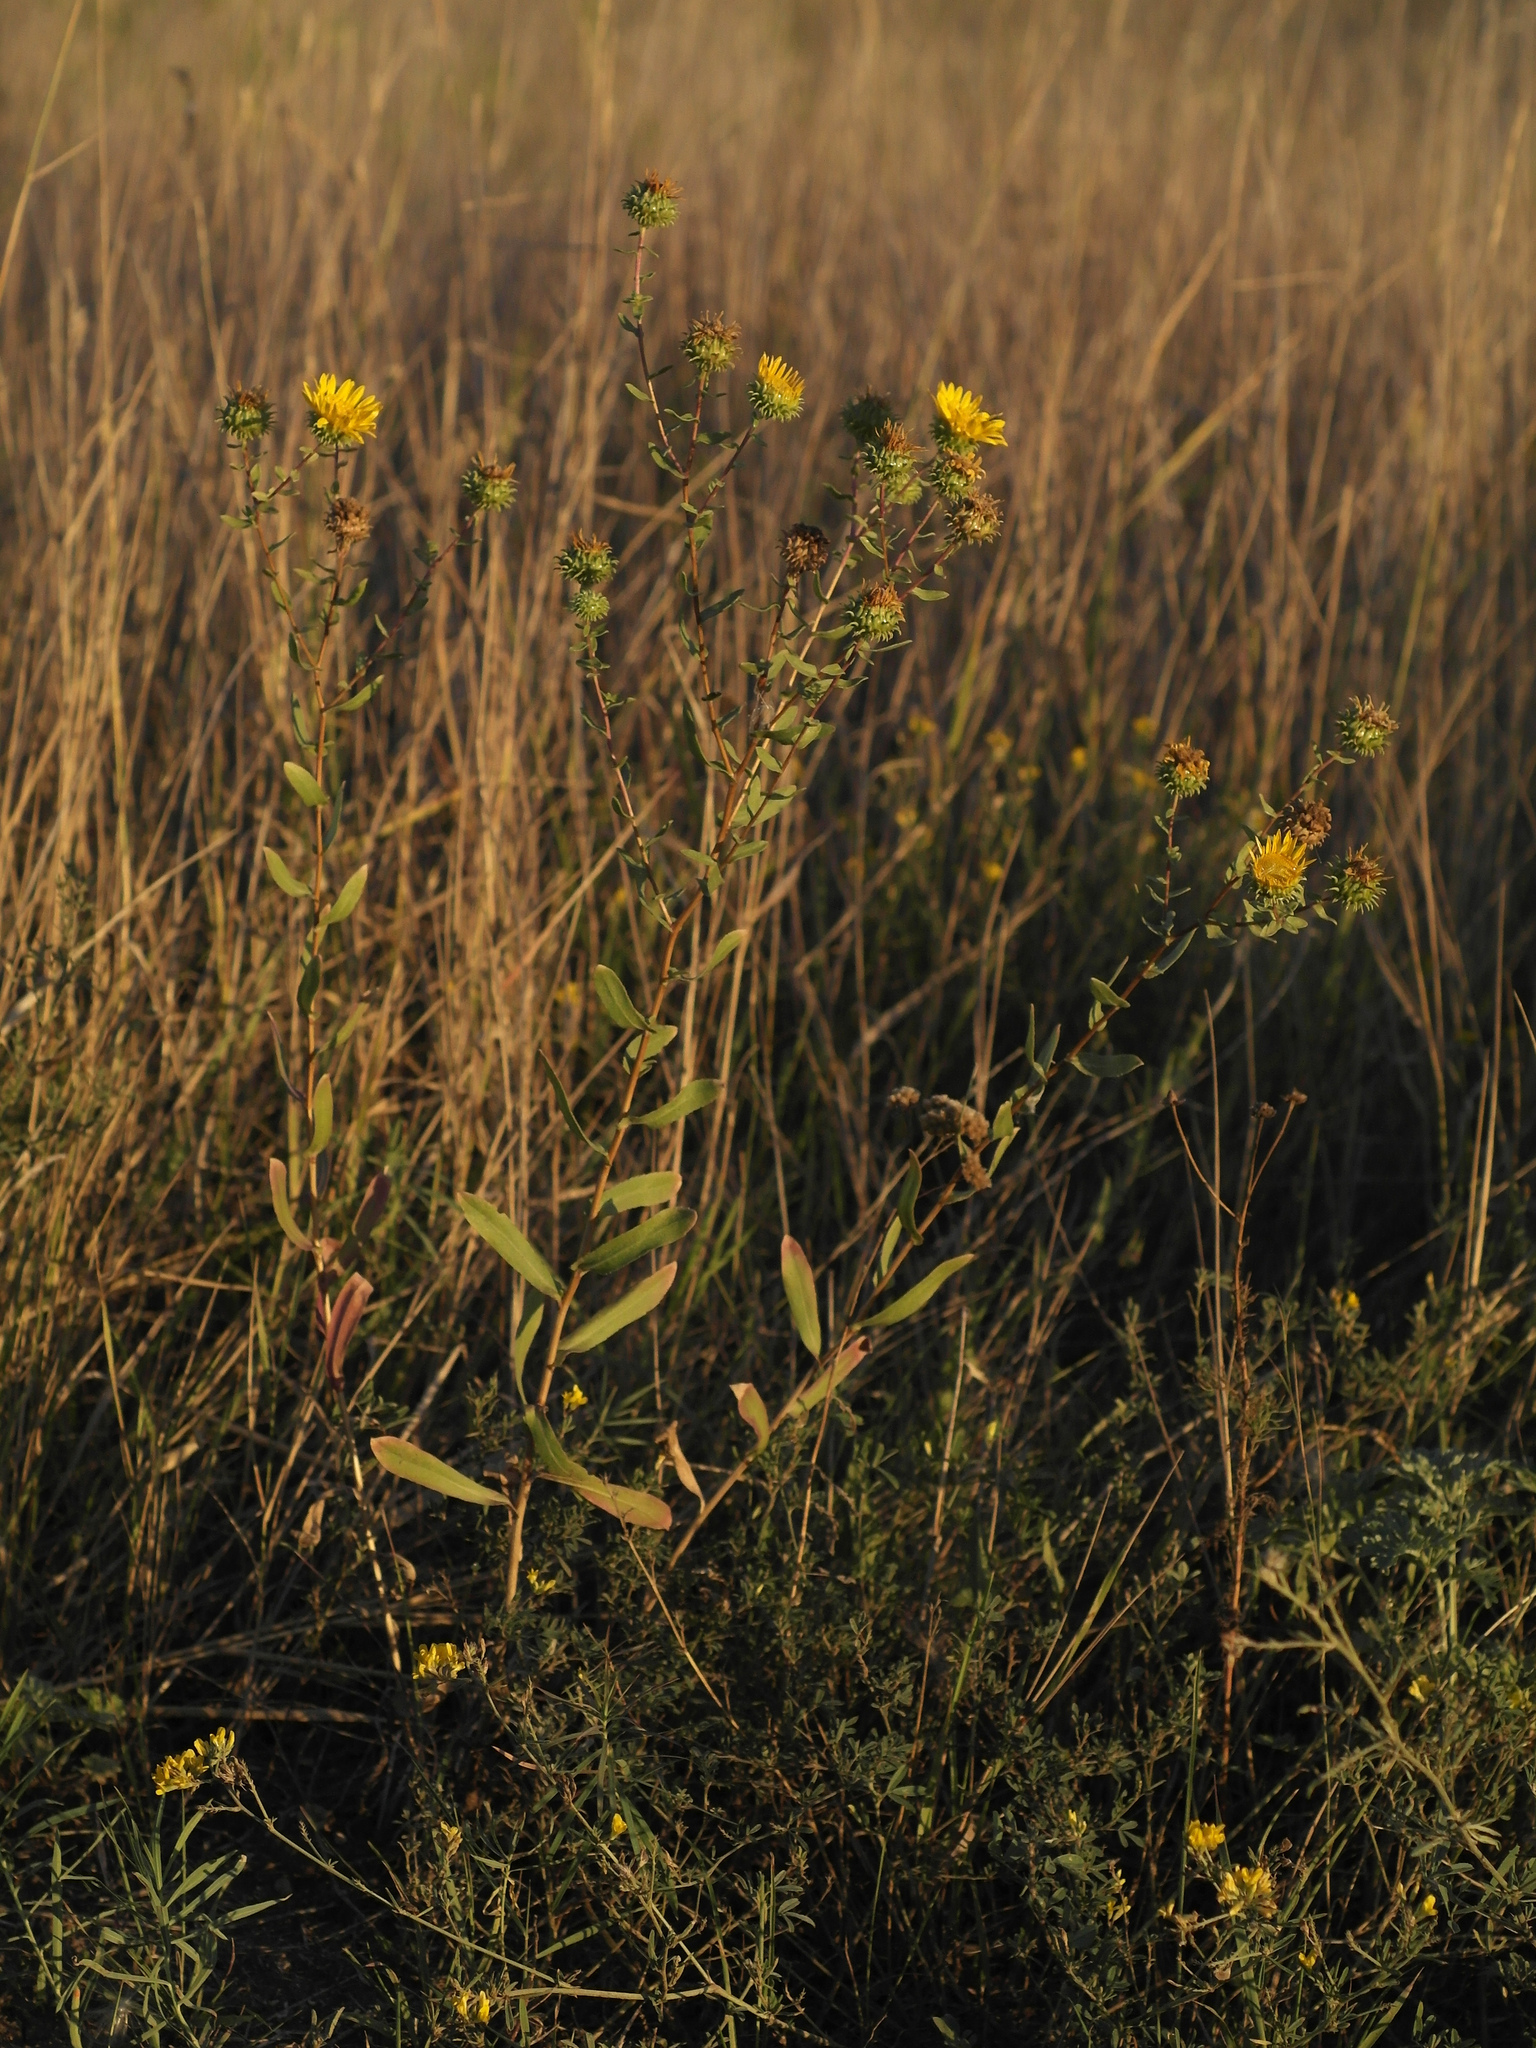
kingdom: Plantae
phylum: Tracheophyta
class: Magnoliopsida
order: Asterales
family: Asteraceae
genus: Grindelia
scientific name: Grindelia squarrosa
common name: Curly-cup gumweed
